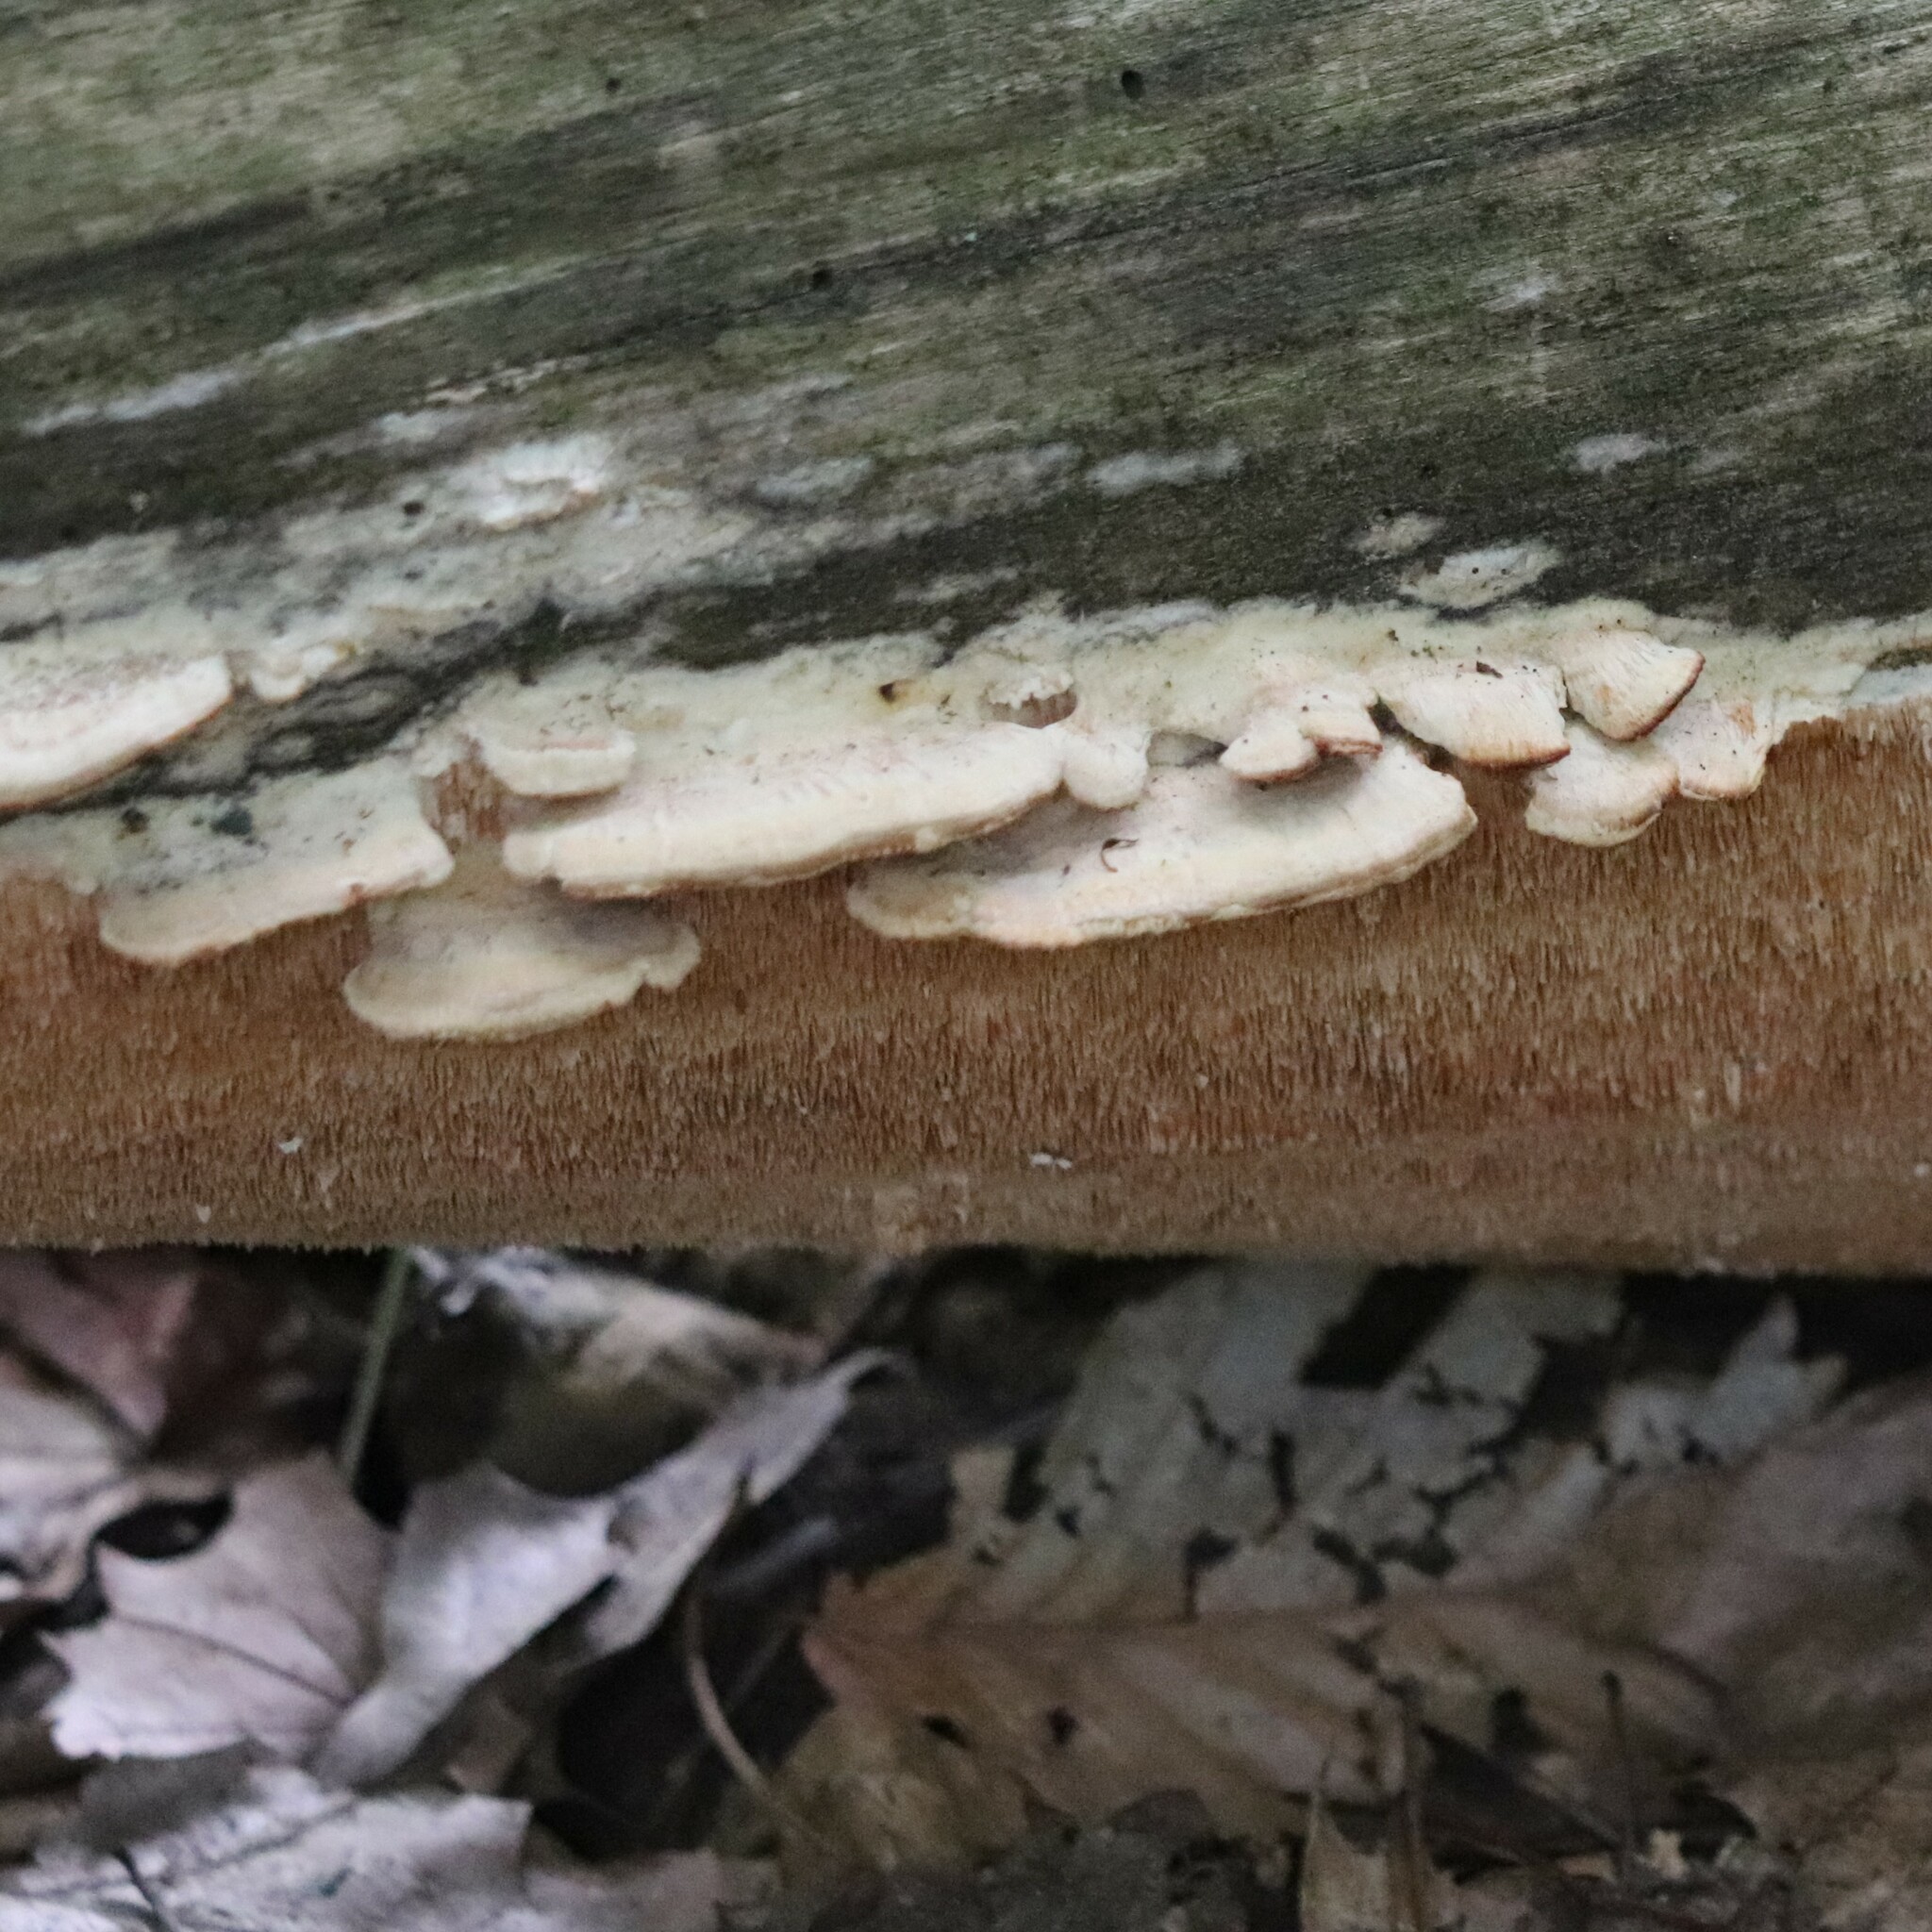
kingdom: Fungi
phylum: Basidiomycota
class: Agaricomycetes
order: Polyporales
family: Steccherinaceae
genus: Steccherinum
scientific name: Steccherinum ochraceum
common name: Ochre spreading tooth
